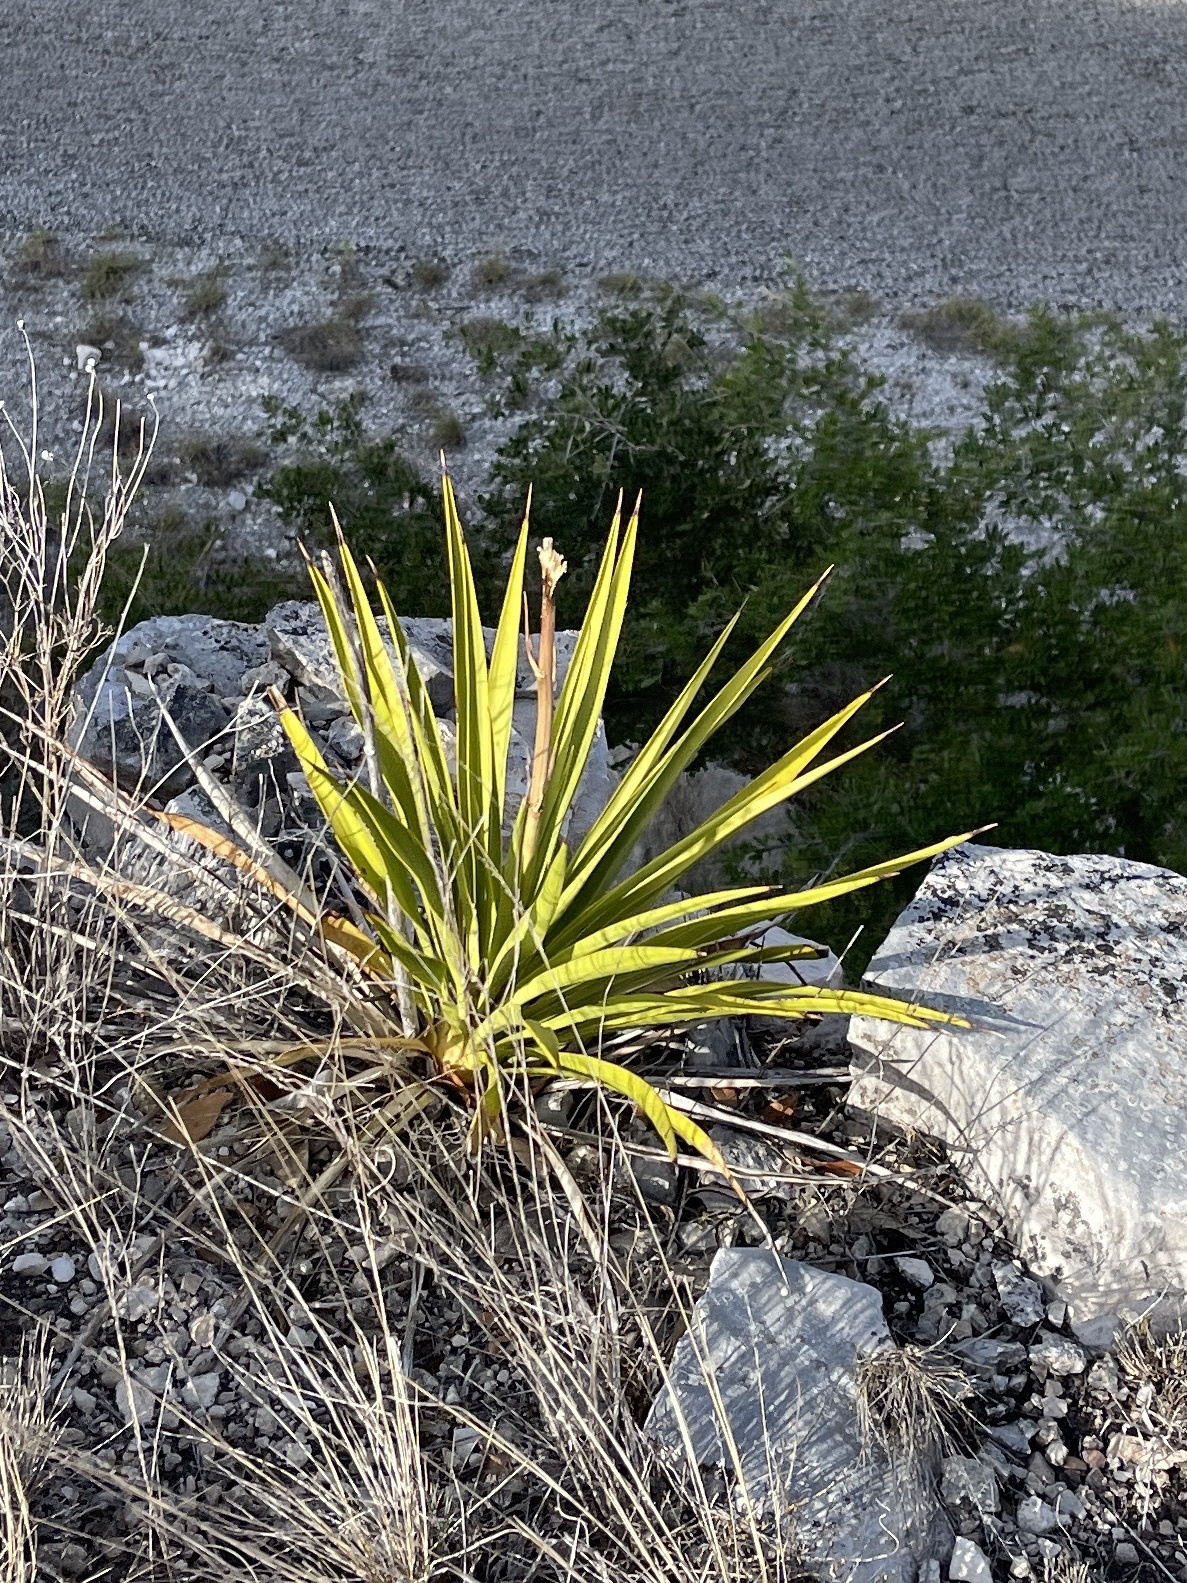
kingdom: Plantae
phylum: Tracheophyta
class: Liliopsida
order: Asparagales
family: Asparagaceae
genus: Yucca
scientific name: Yucca rupicola
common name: Twisted-leaf spanish-dagger
